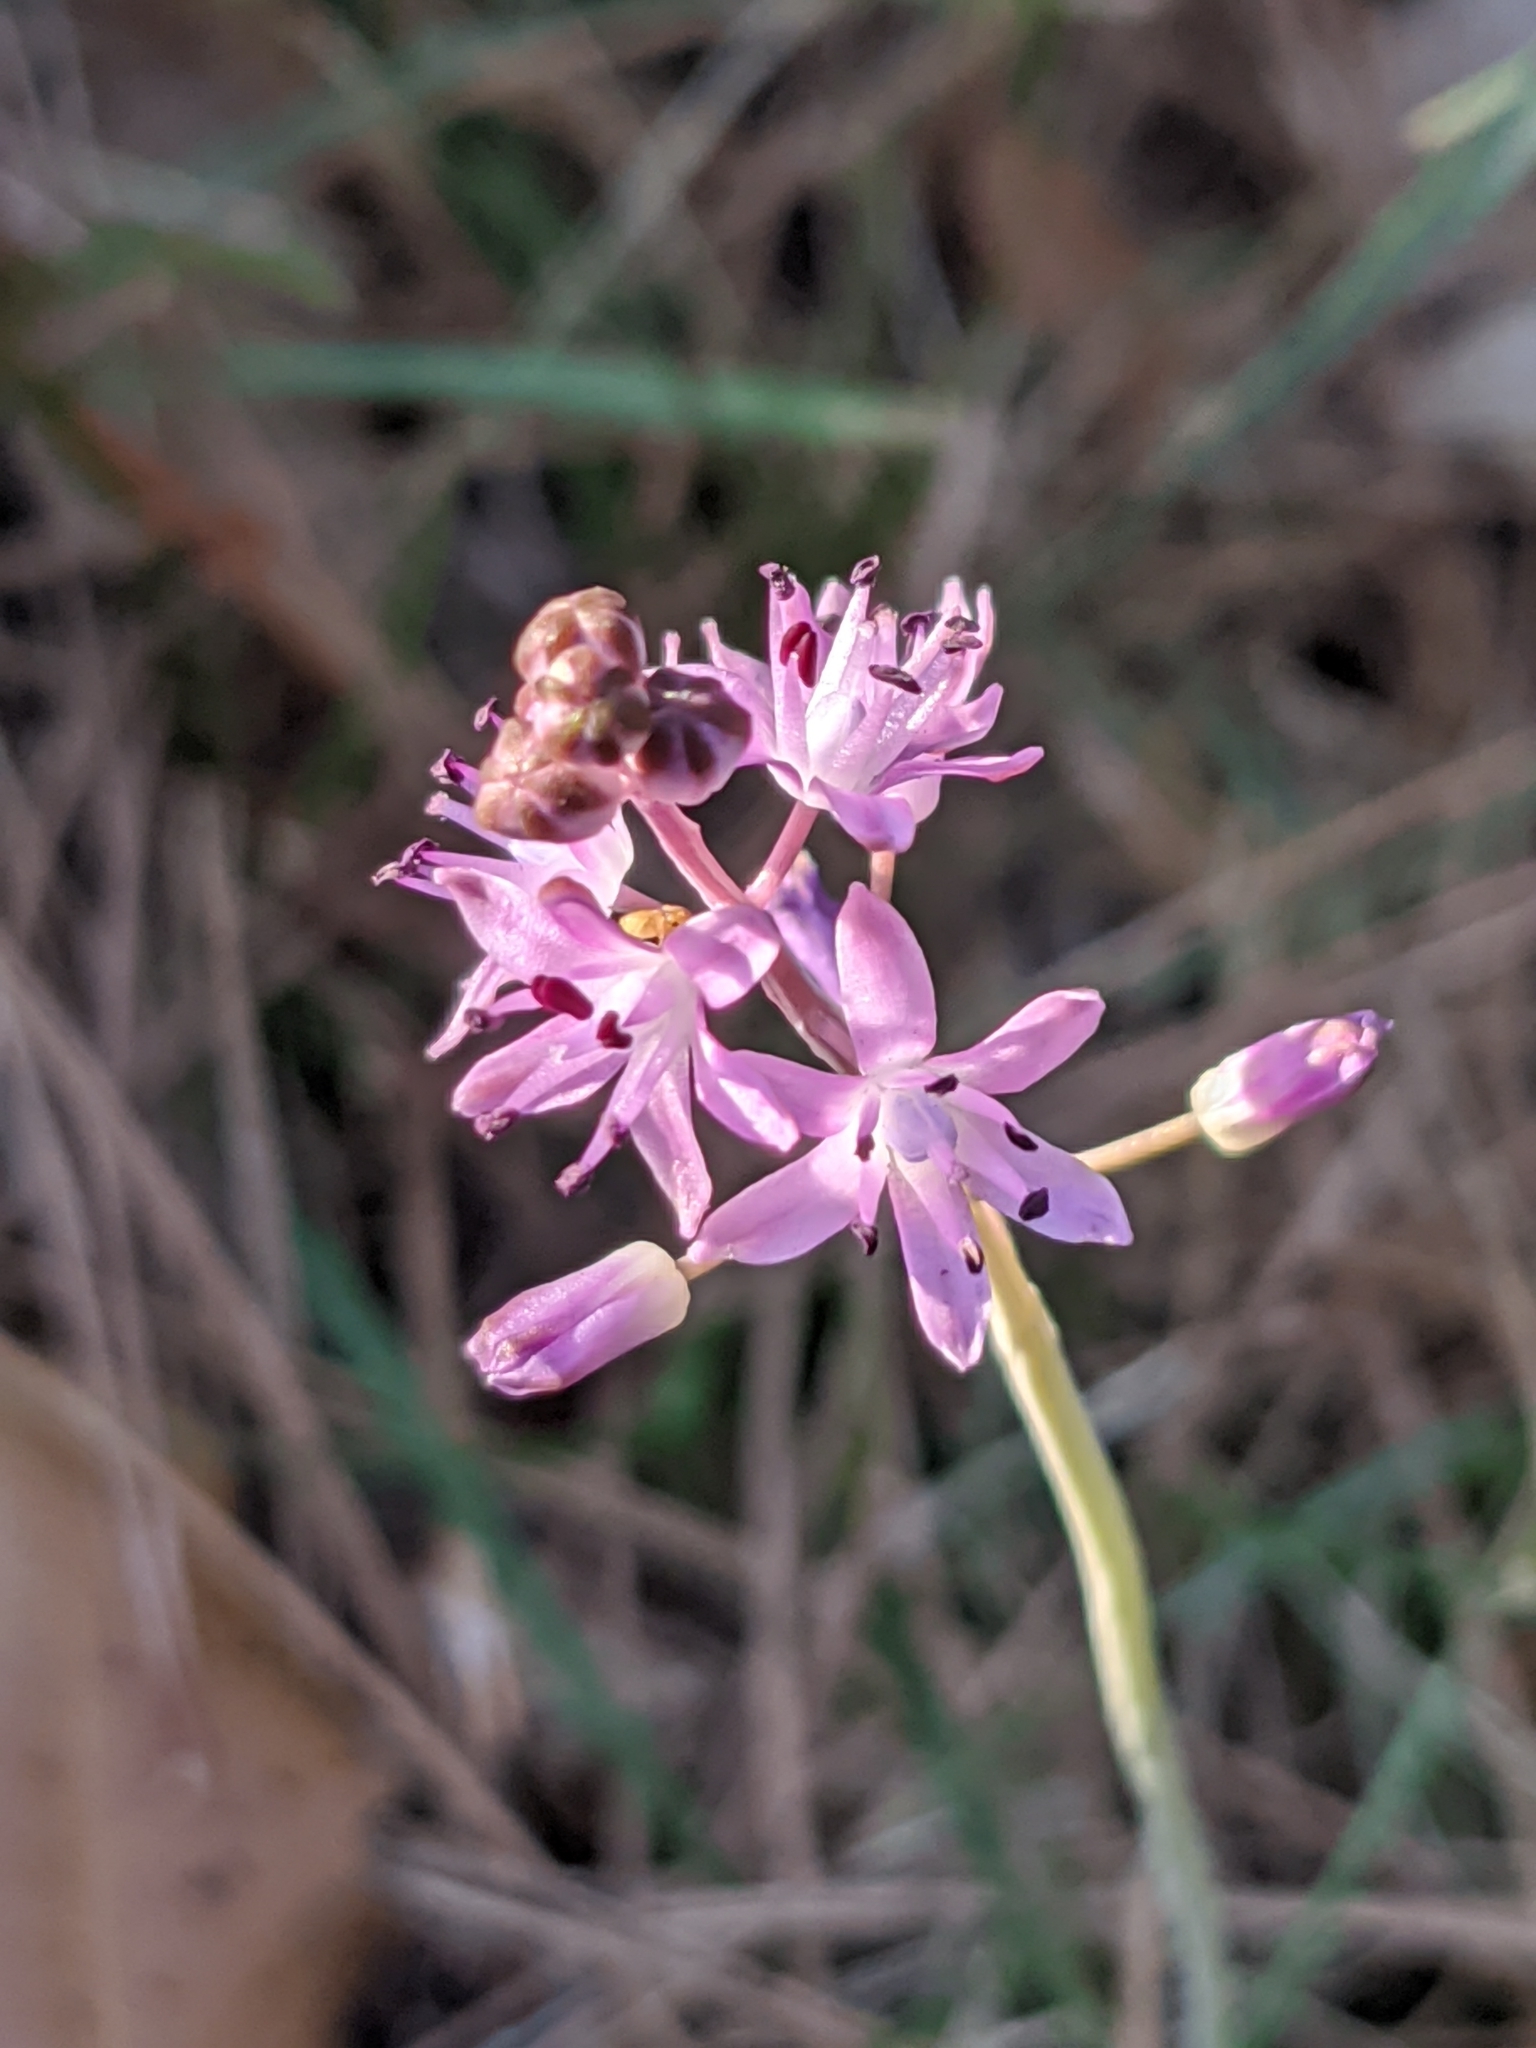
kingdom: Plantae
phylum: Tracheophyta
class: Liliopsida
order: Asparagales
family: Asparagaceae
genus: Prospero
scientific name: Prospero autumnale
